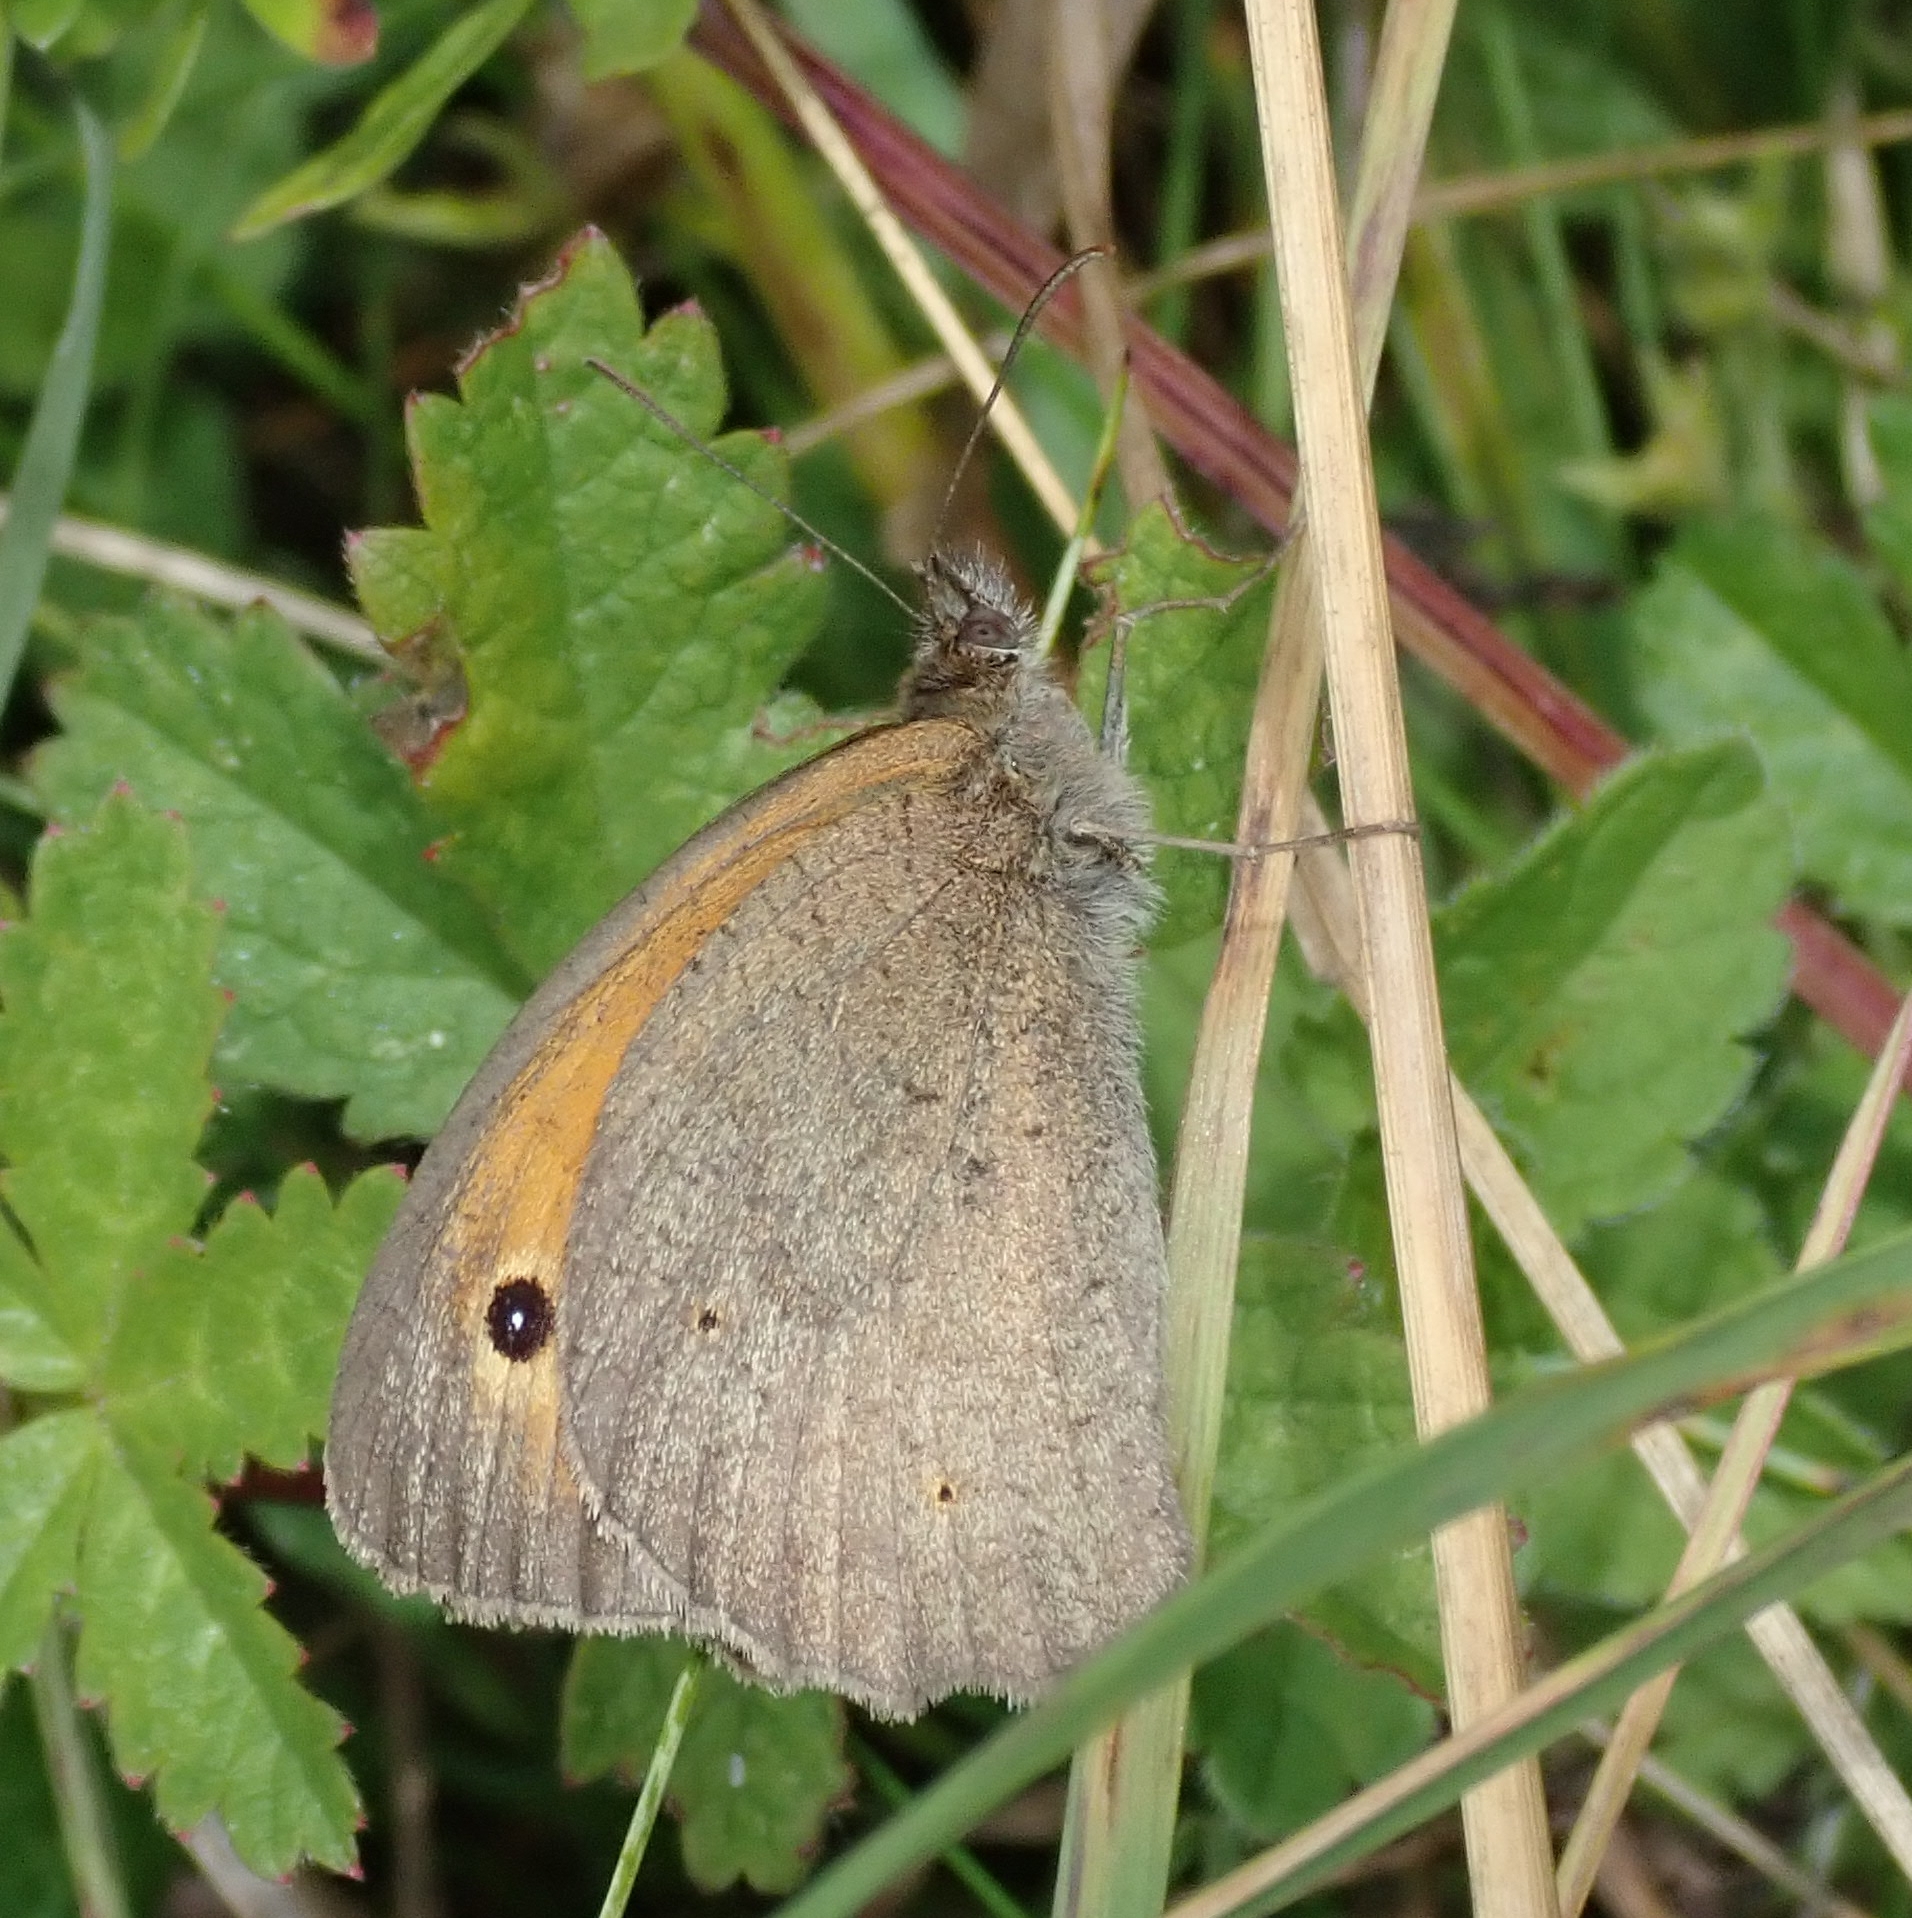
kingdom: Animalia
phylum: Arthropoda
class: Insecta
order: Lepidoptera
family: Nymphalidae
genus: Maniola
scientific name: Maniola jurtina
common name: Meadow brown
